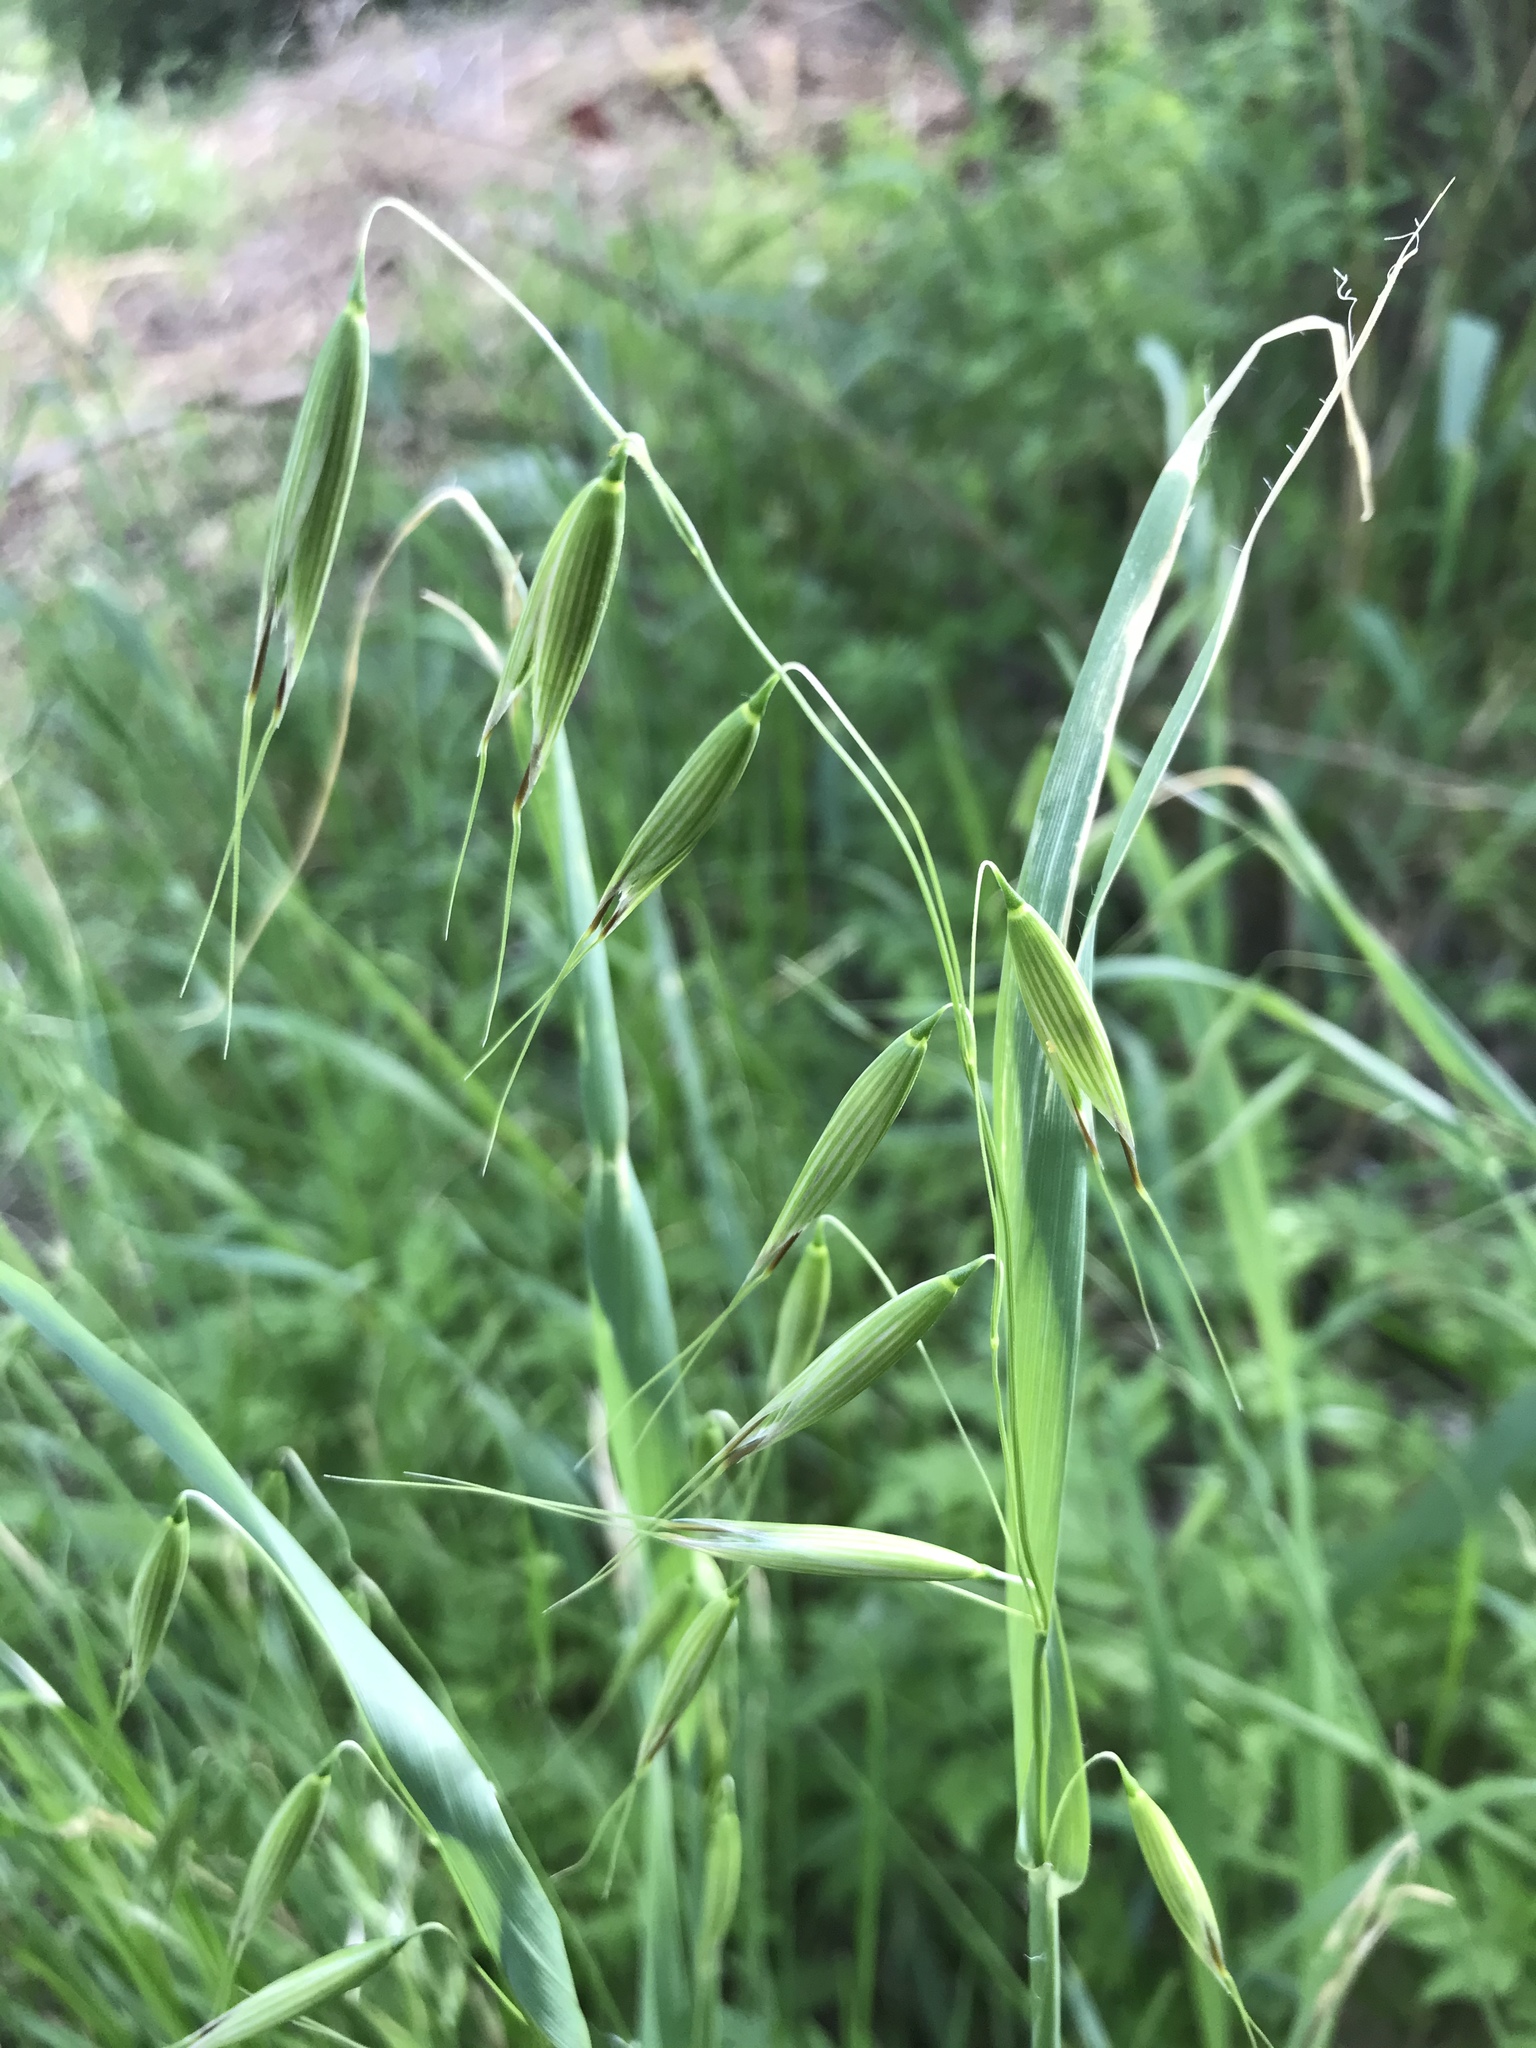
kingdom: Plantae
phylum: Tracheophyta
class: Liliopsida
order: Poales
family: Poaceae
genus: Avena
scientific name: Avena fatua
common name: Wild oat
